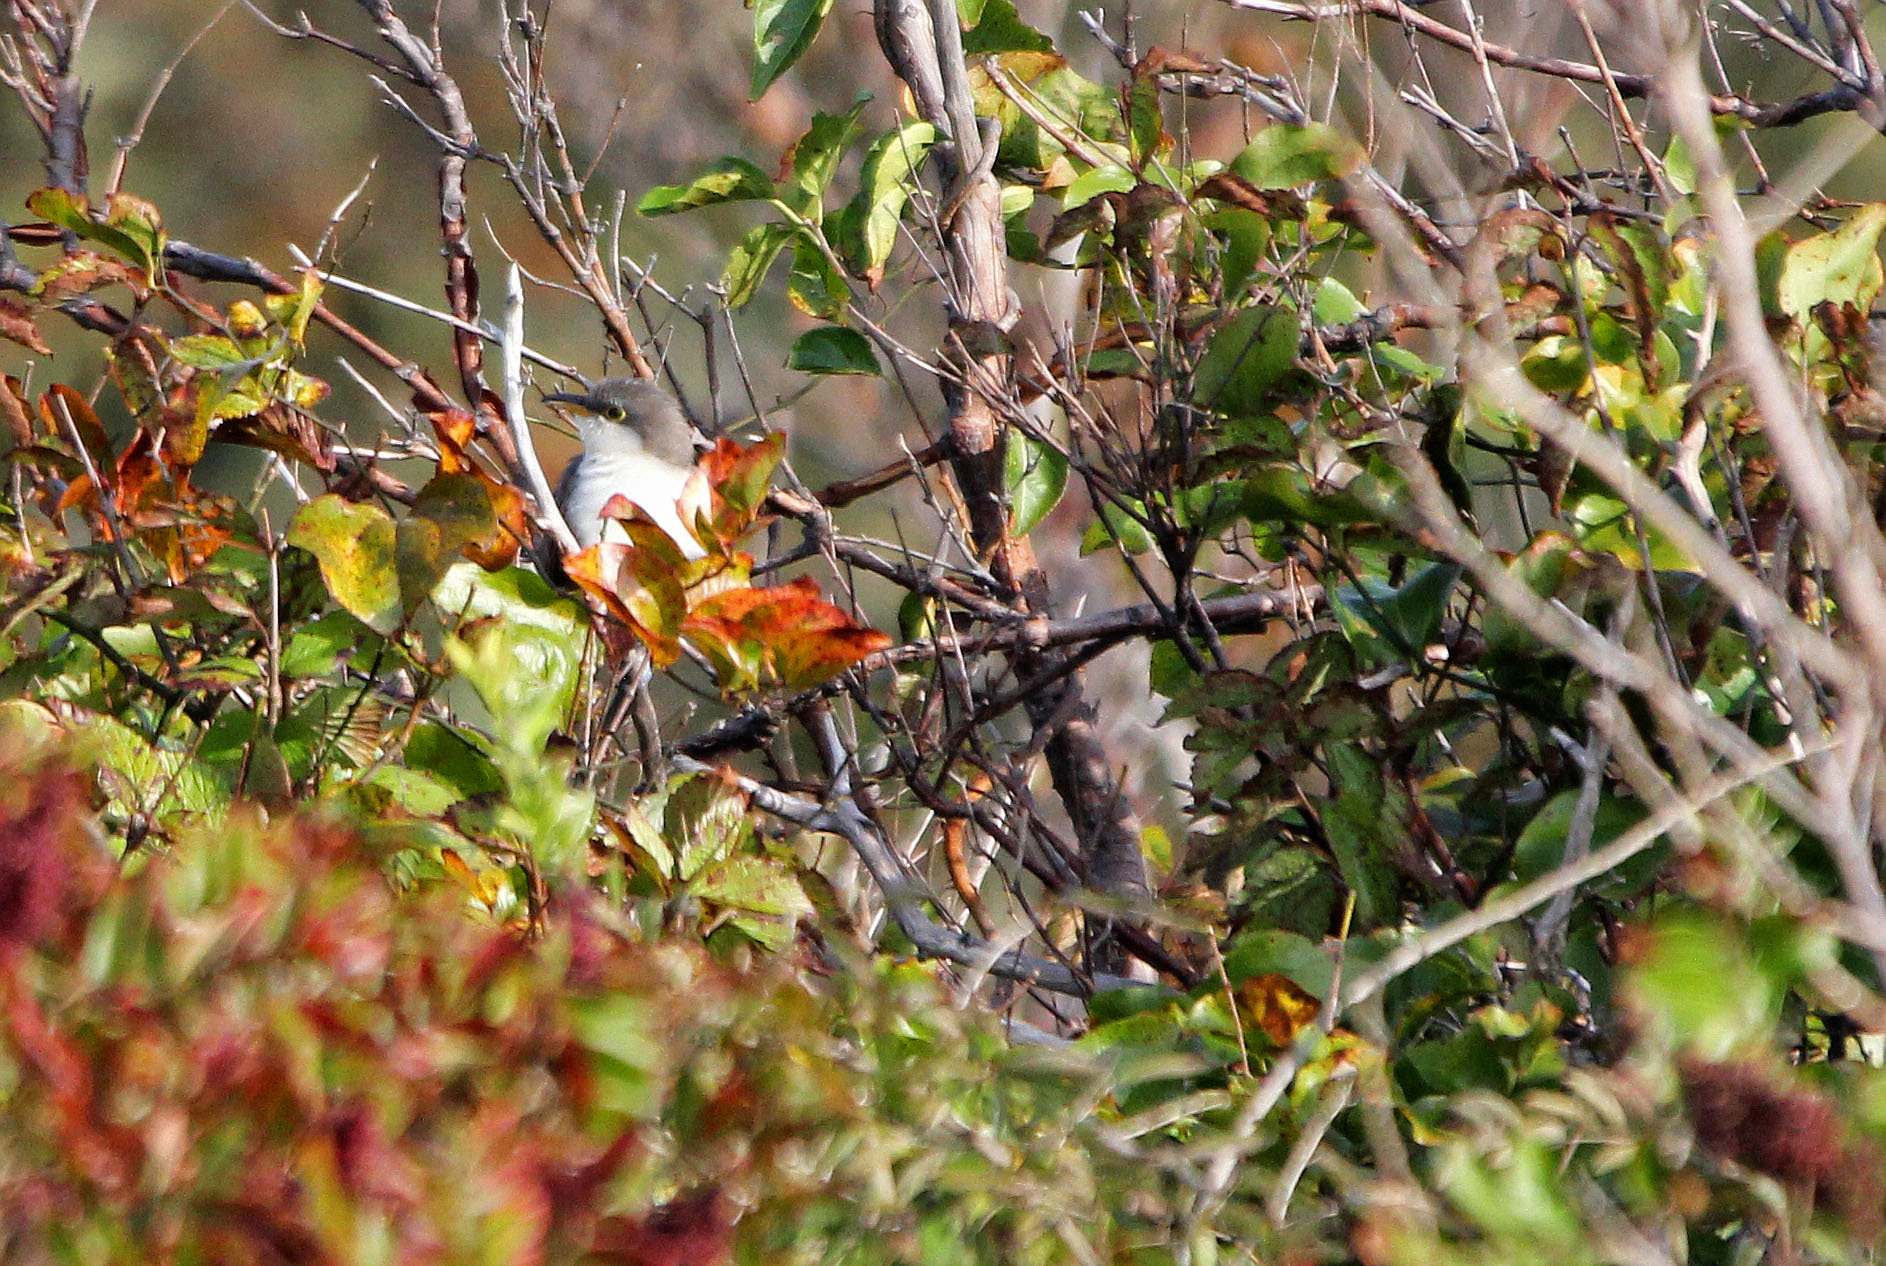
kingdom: Animalia
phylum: Chordata
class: Aves
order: Cuculiformes
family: Cuculidae
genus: Coccyzus
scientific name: Coccyzus americanus
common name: Yellow-billed cuckoo
